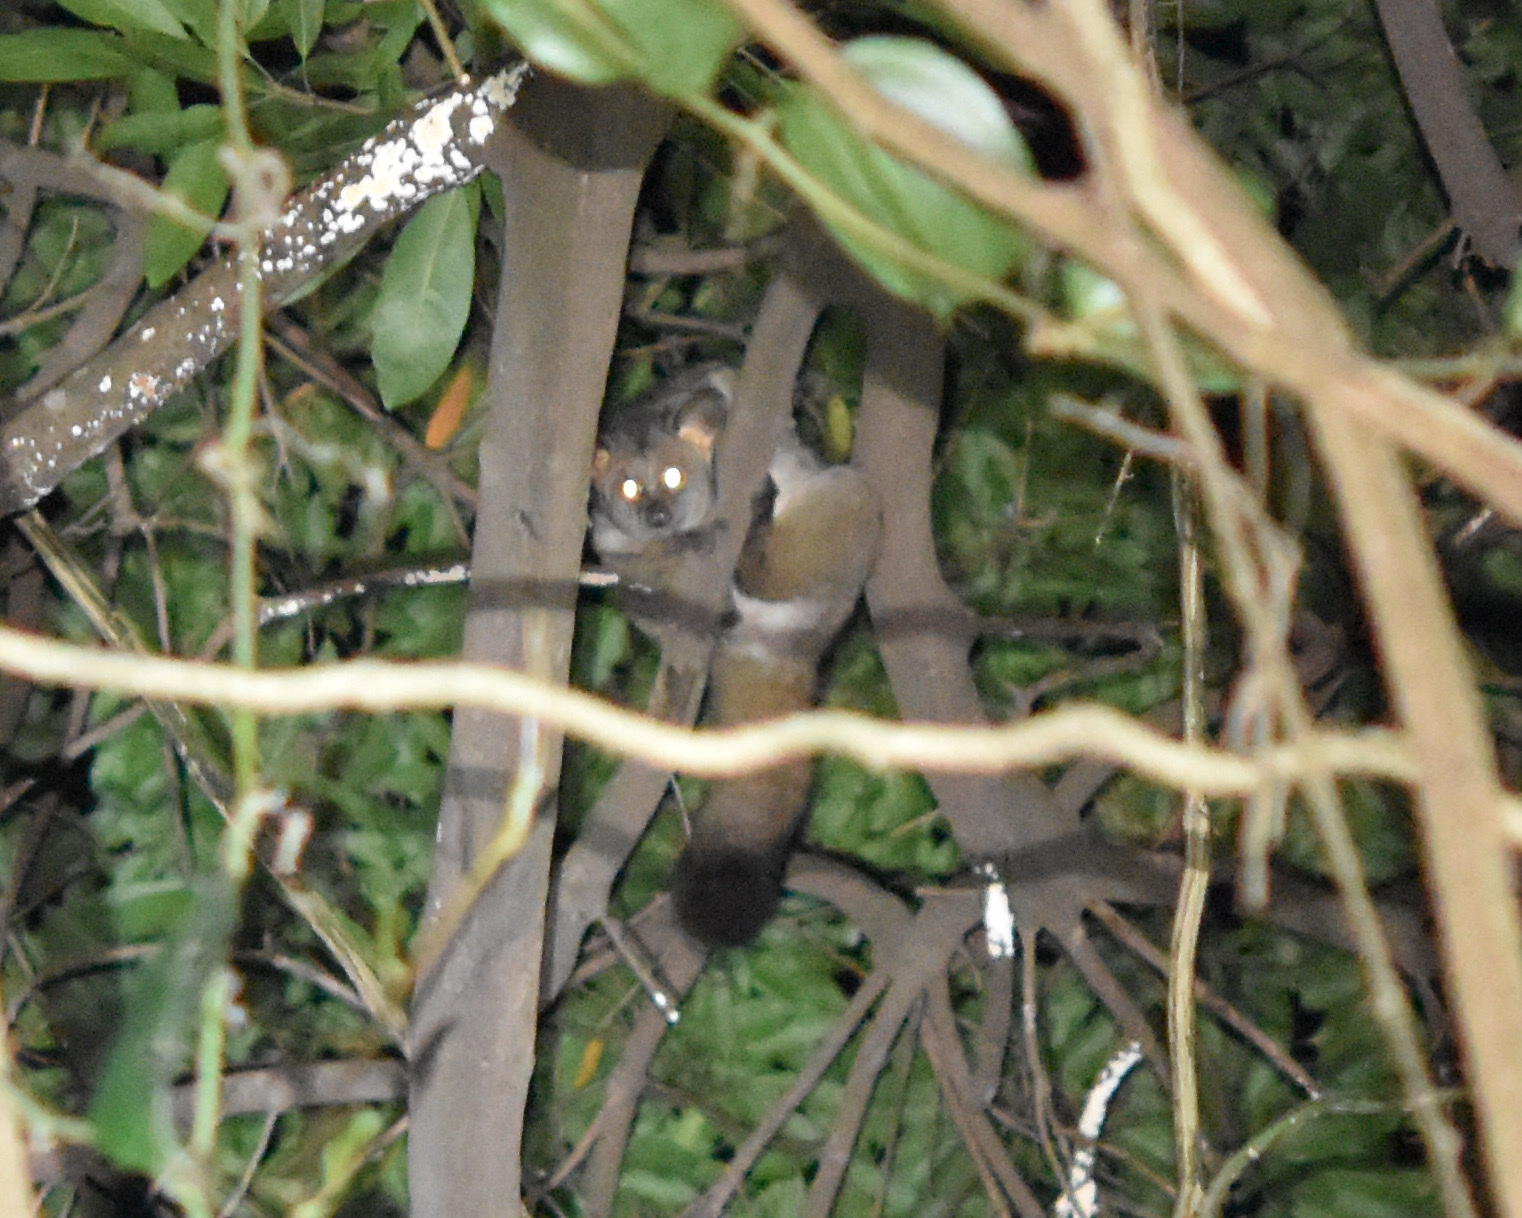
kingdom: Animalia
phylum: Chordata
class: Mammalia
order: Primates
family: Galagidae
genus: Otolemur
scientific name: Otolemur crassicaudatus
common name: Brown greater galago
